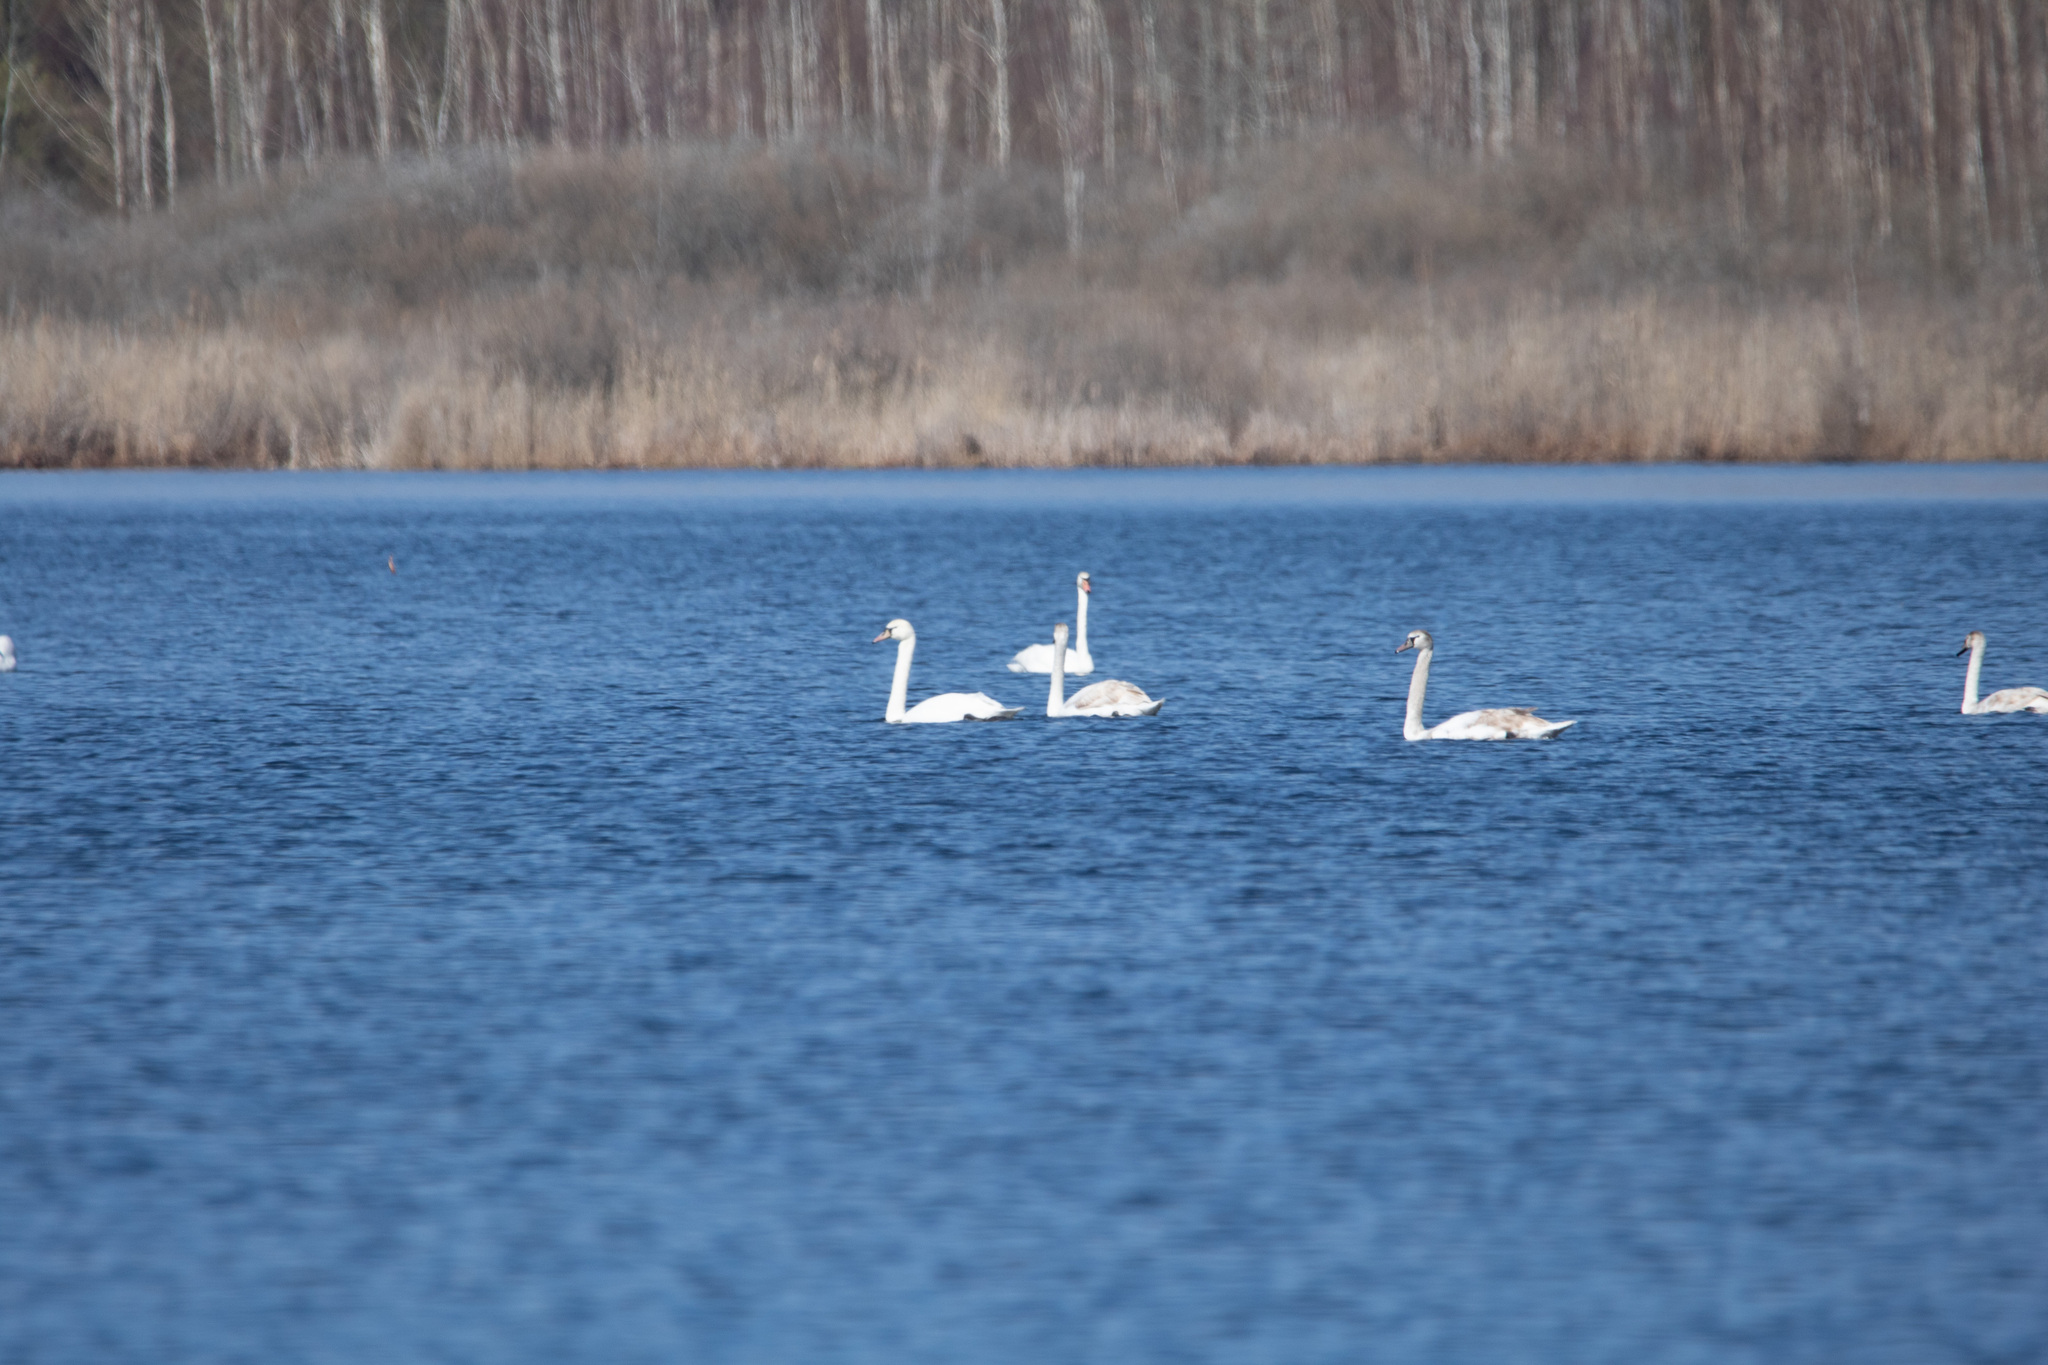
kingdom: Animalia
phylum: Chordata
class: Aves
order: Anseriformes
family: Anatidae
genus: Cygnus
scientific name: Cygnus olor
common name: Mute swan
